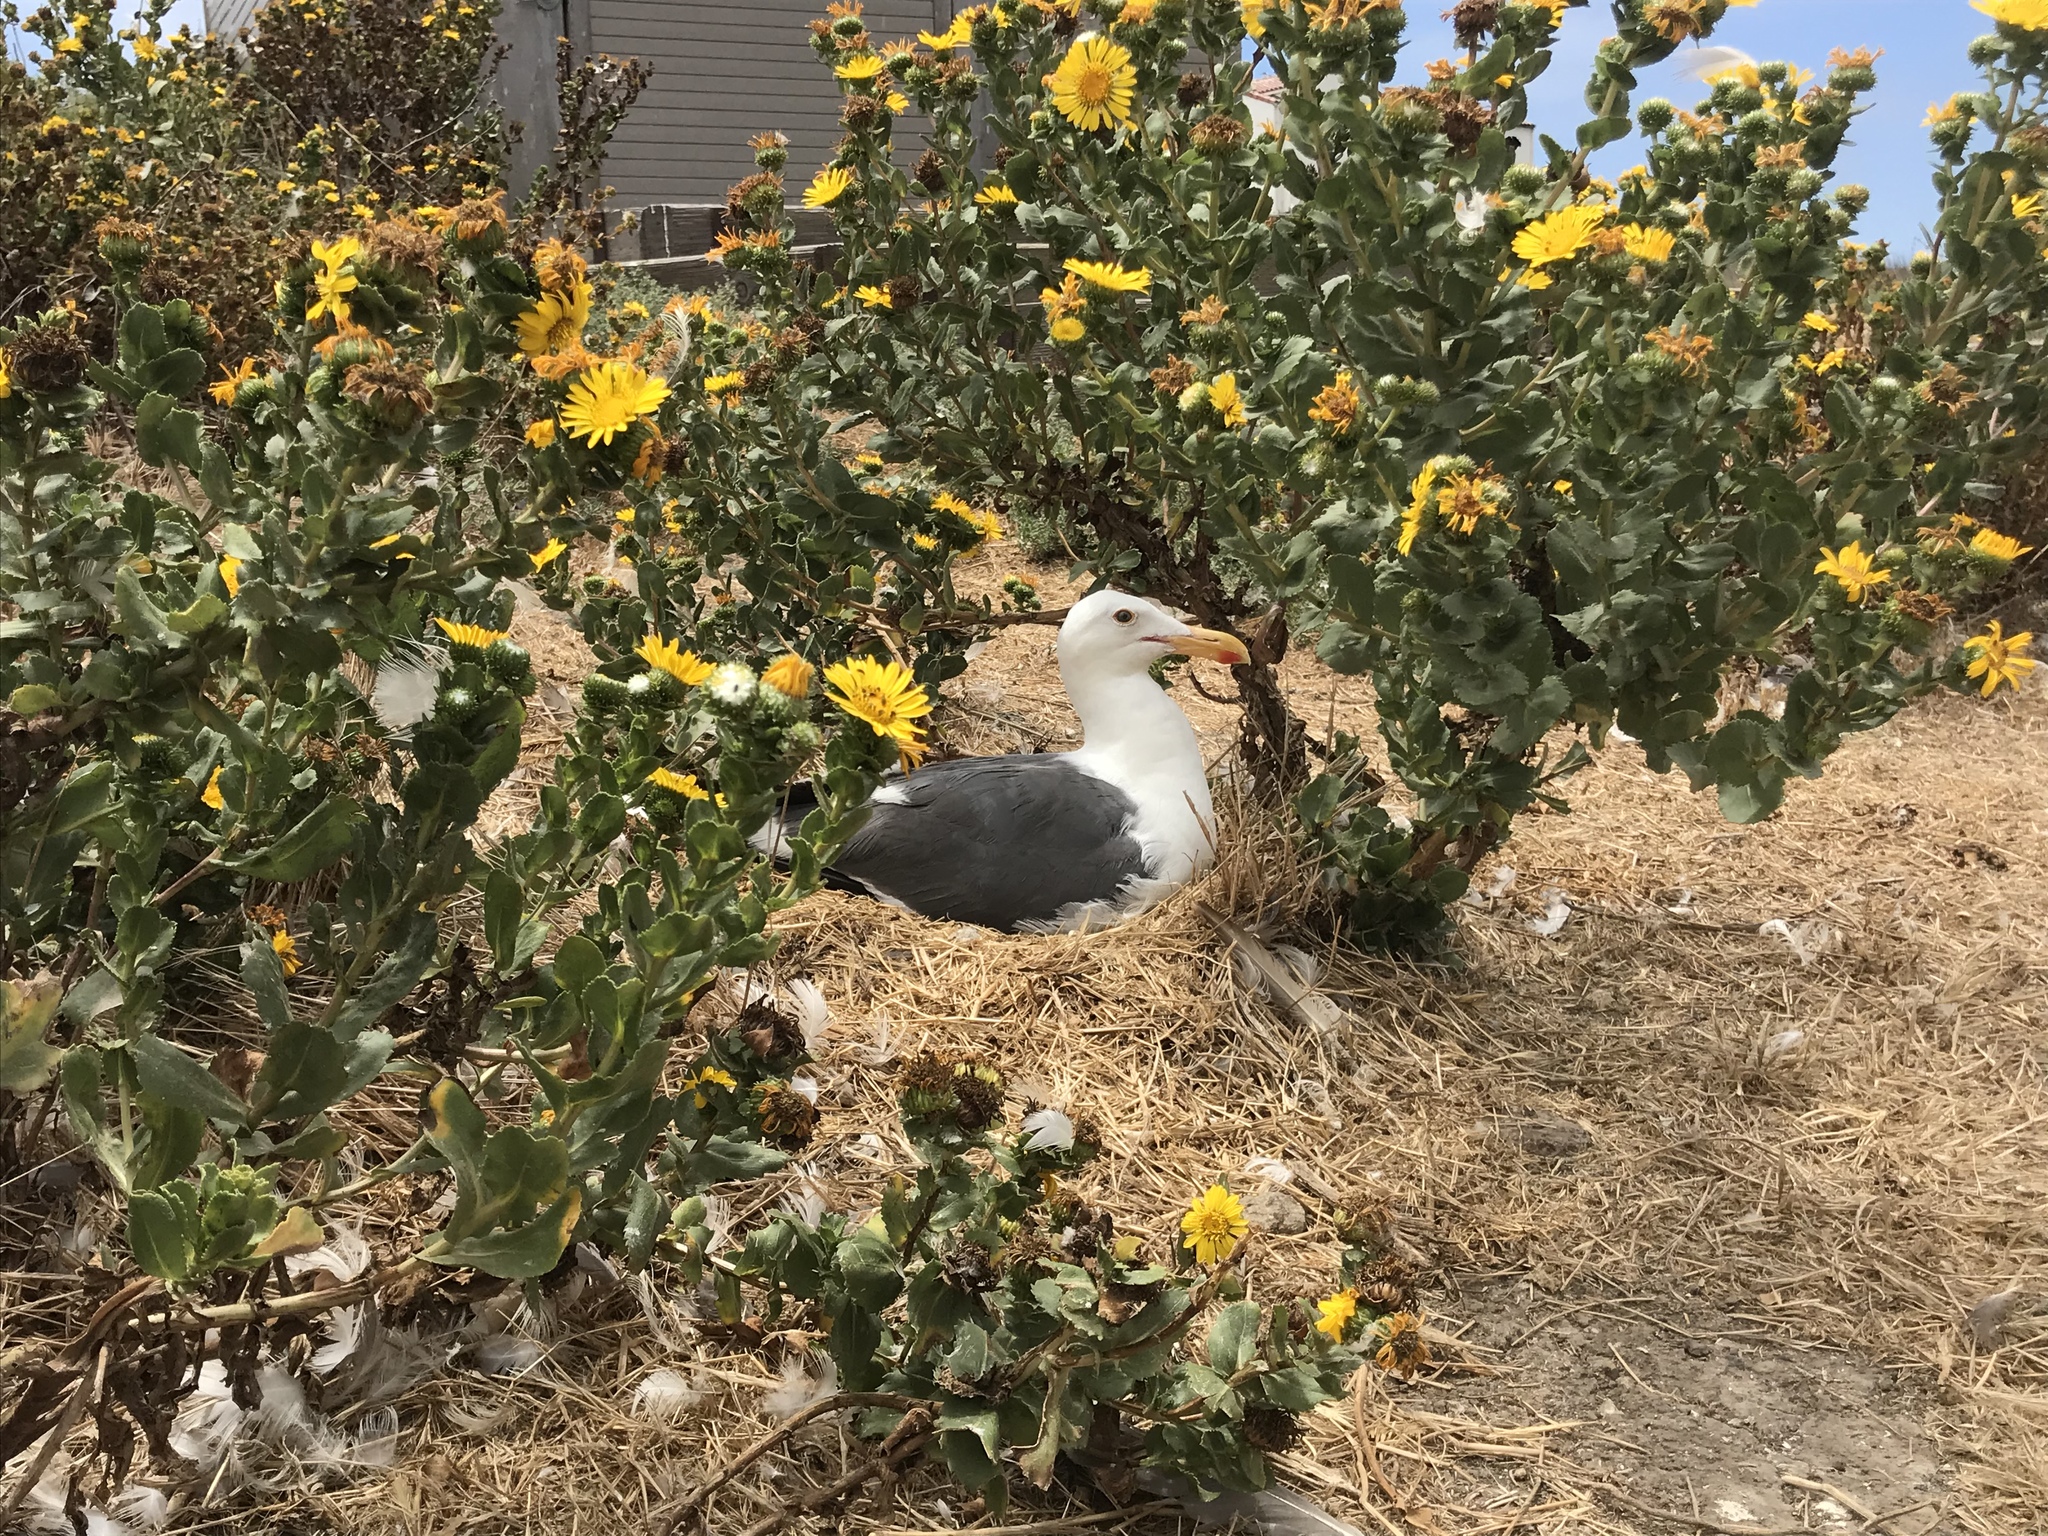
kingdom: Animalia
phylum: Chordata
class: Aves
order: Charadriiformes
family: Laridae
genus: Larus
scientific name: Larus occidentalis
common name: Western gull
